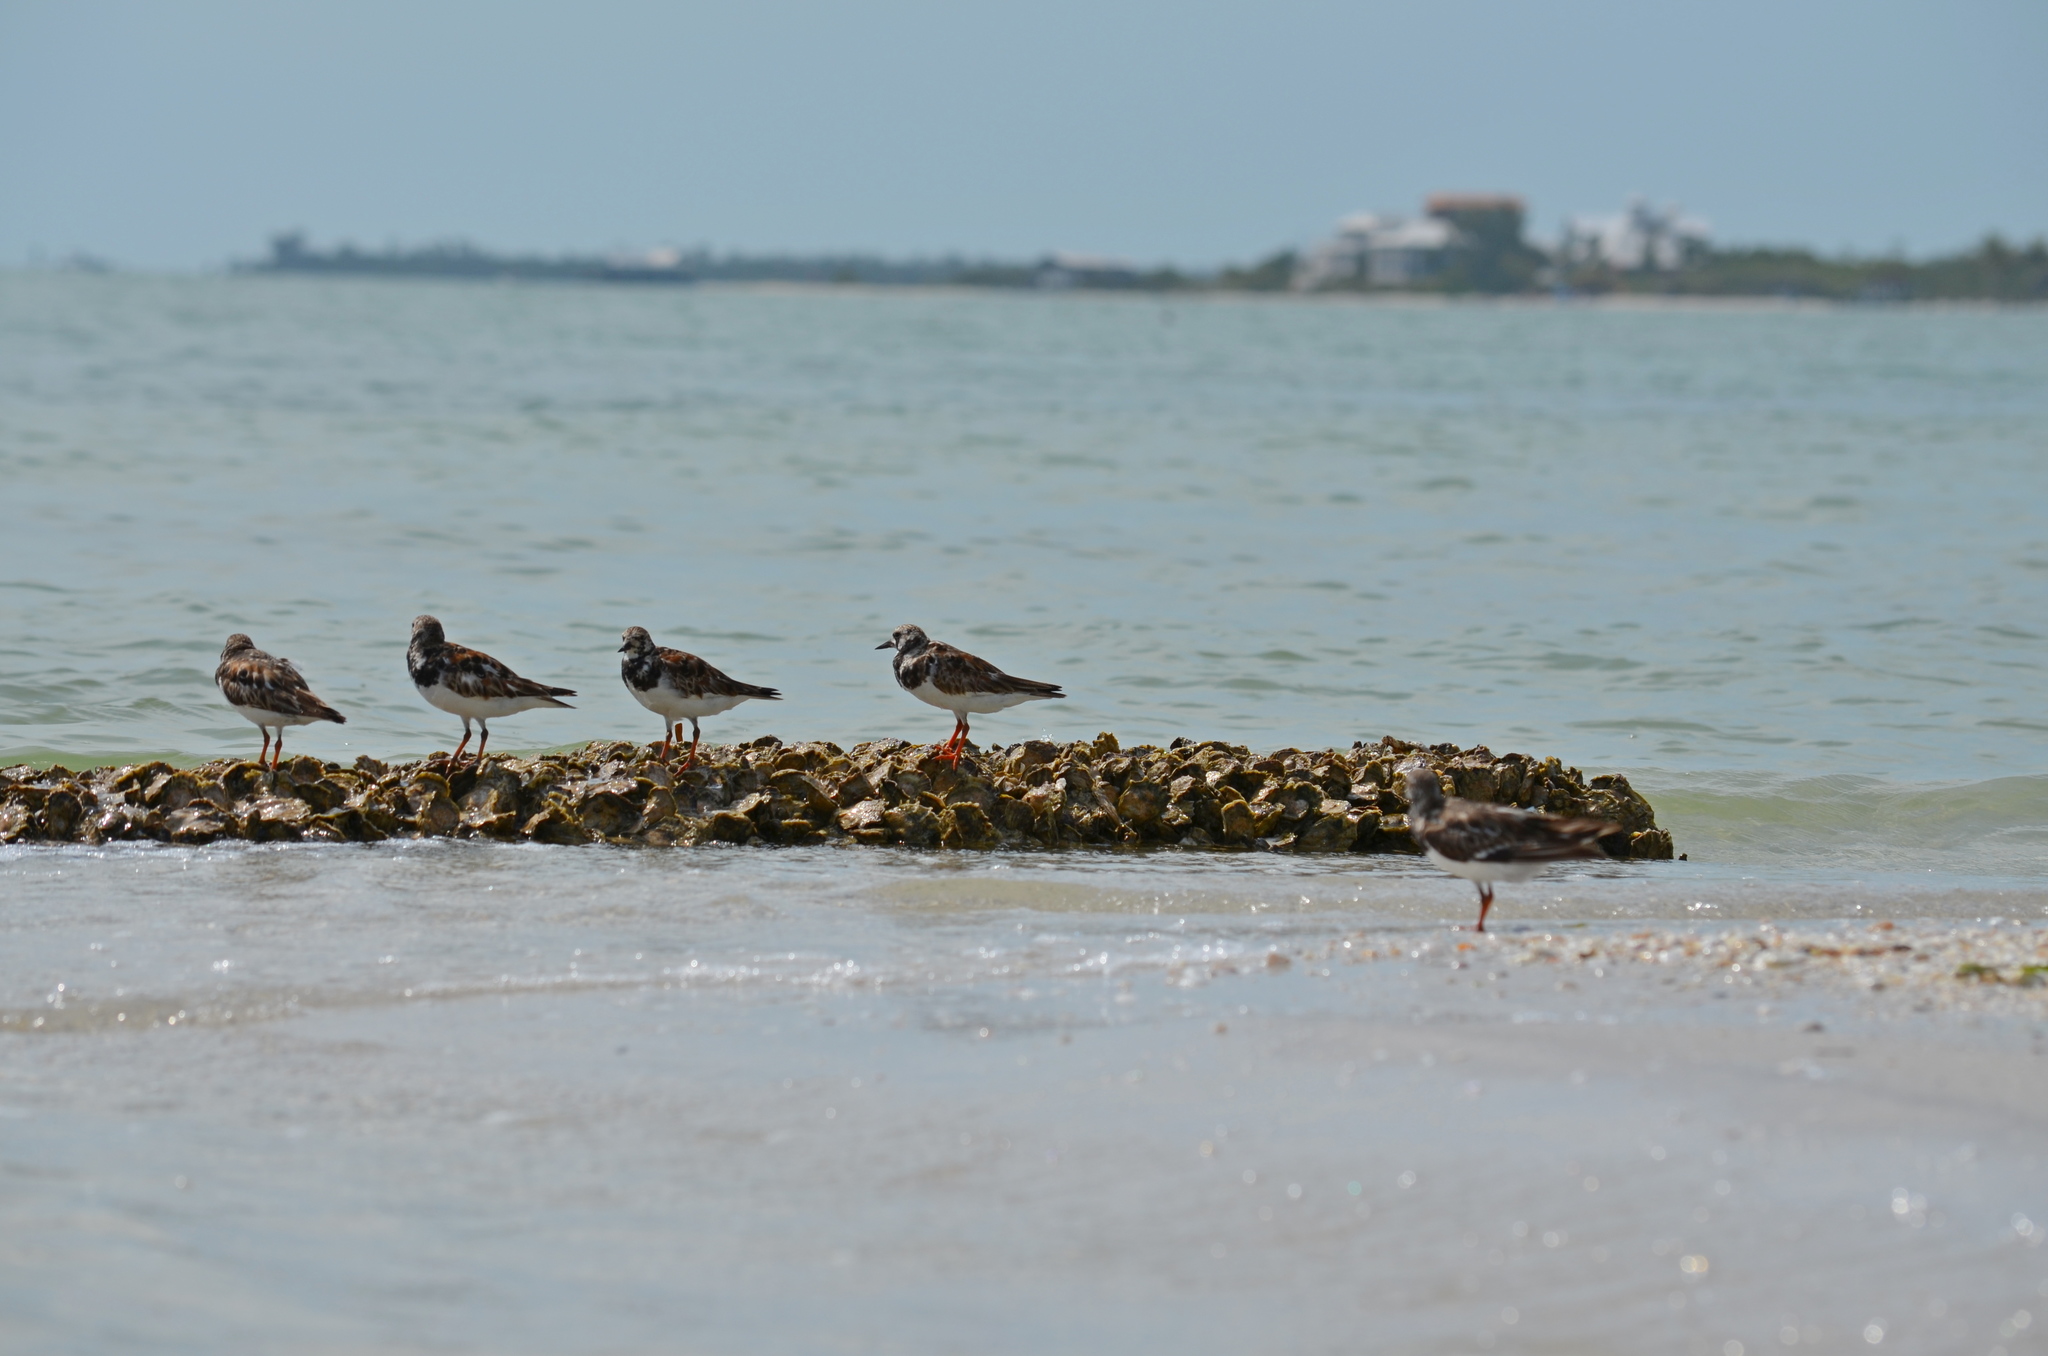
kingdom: Animalia
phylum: Chordata
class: Aves
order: Charadriiformes
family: Scolopacidae
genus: Arenaria
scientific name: Arenaria interpres
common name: Ruddy turnstone
